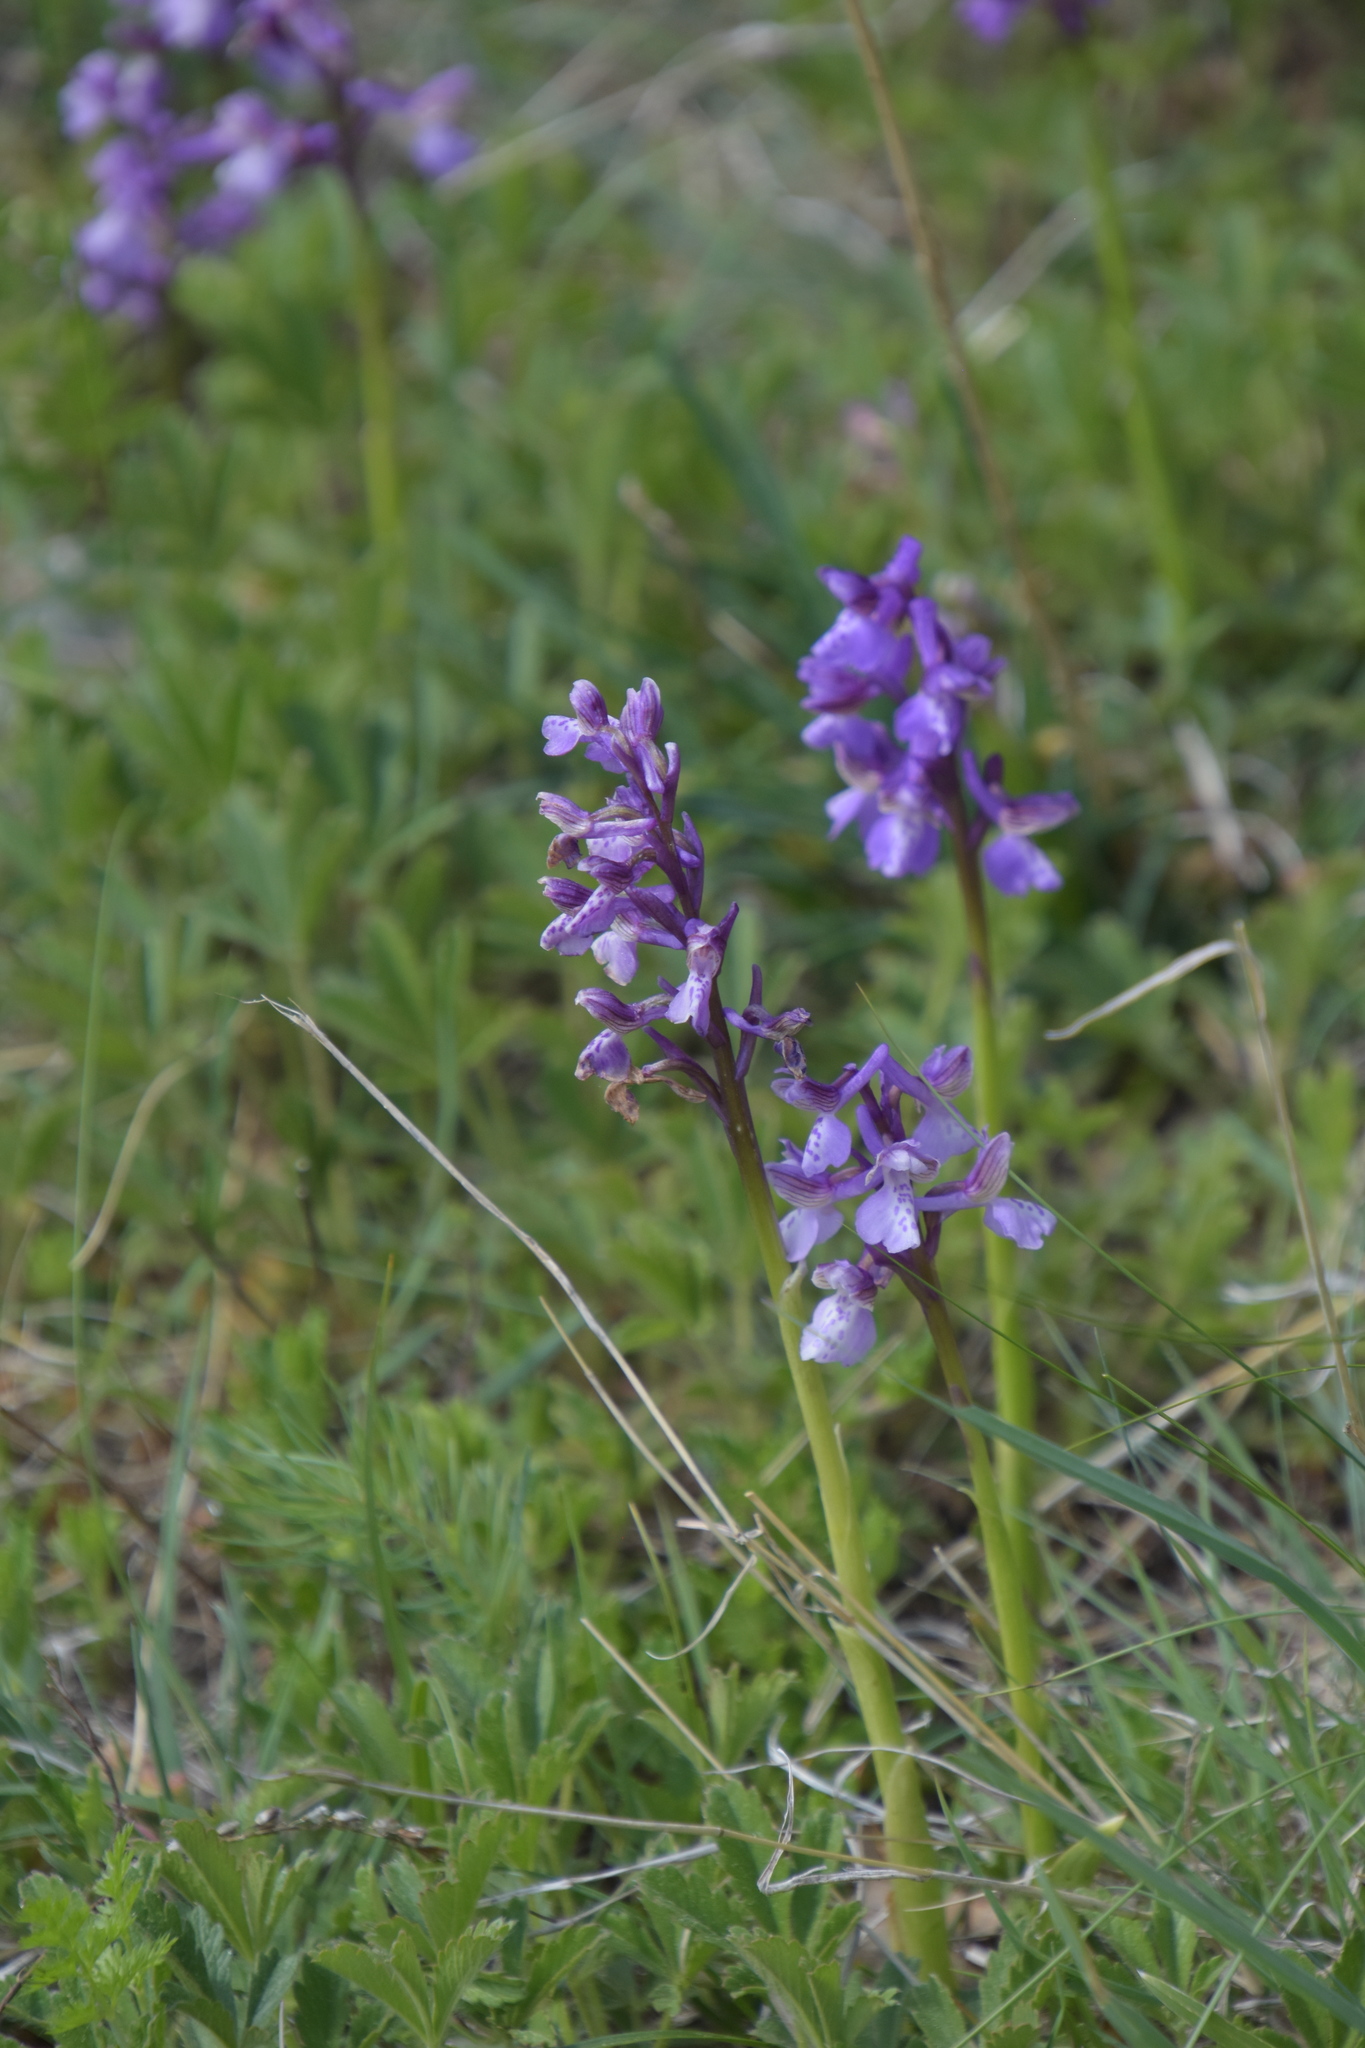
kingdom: Plantae
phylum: Tracheophyta
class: Liliopsida
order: Asparagales
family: Orchidaceae
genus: Anacamptis
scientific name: Anacamptis morio
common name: Green-winged orchid
